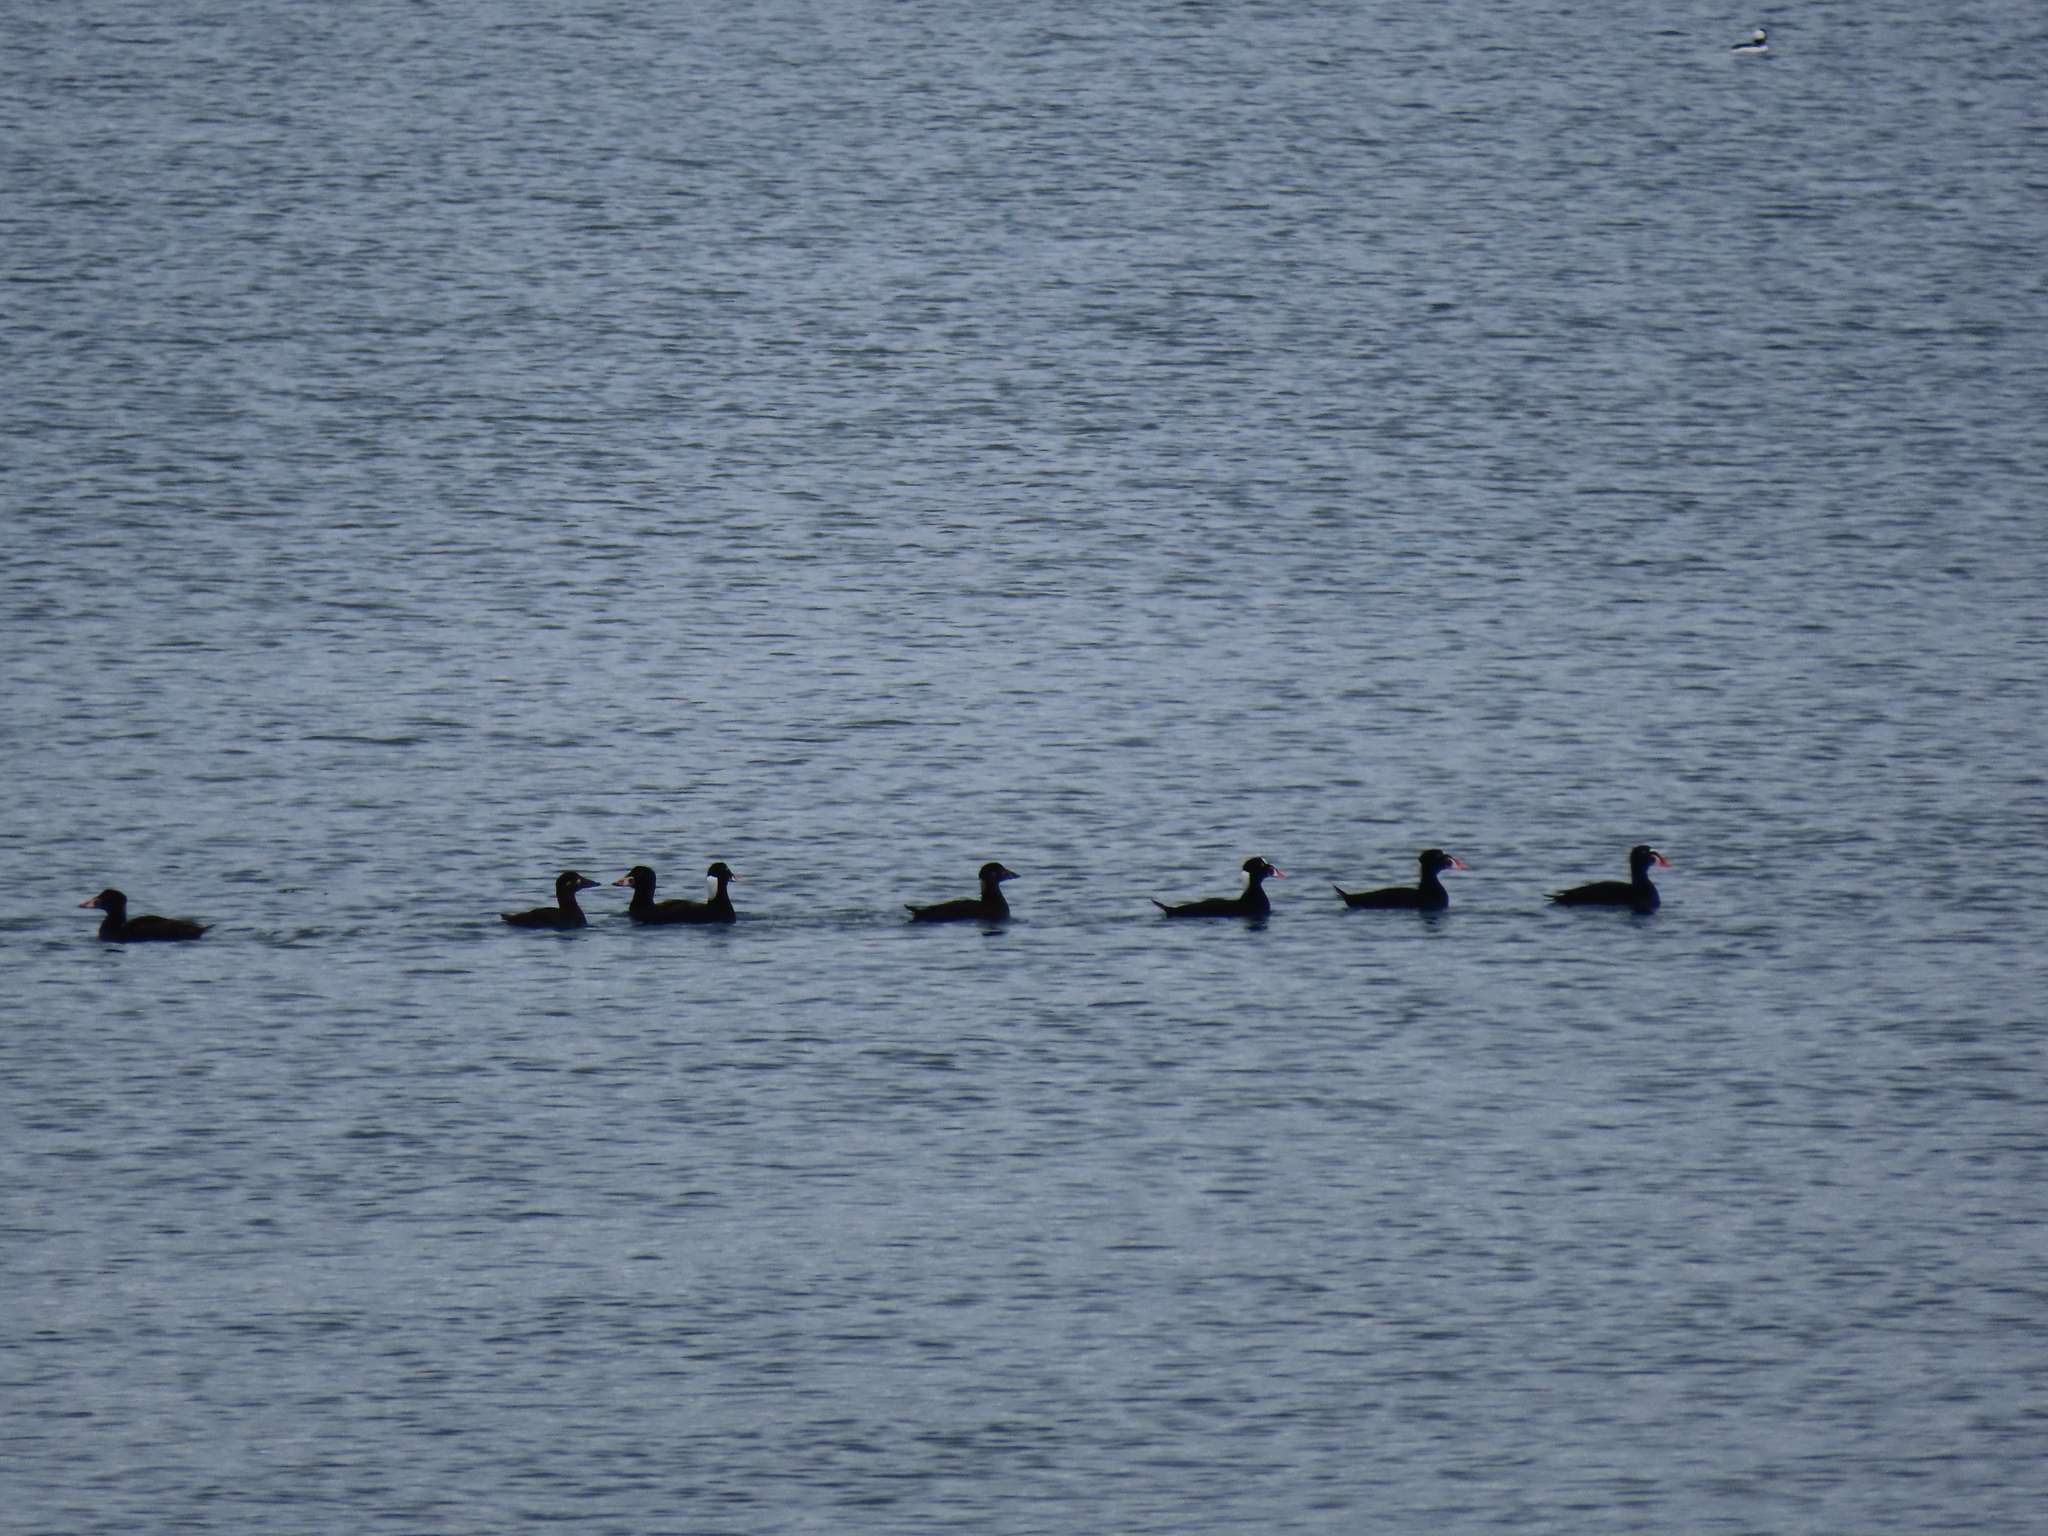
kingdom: Animalia
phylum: Chordata
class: Aves
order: Anseriformes
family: Anatidae
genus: Melanitta
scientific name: Melanitta perspicillata
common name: Surf scoter
